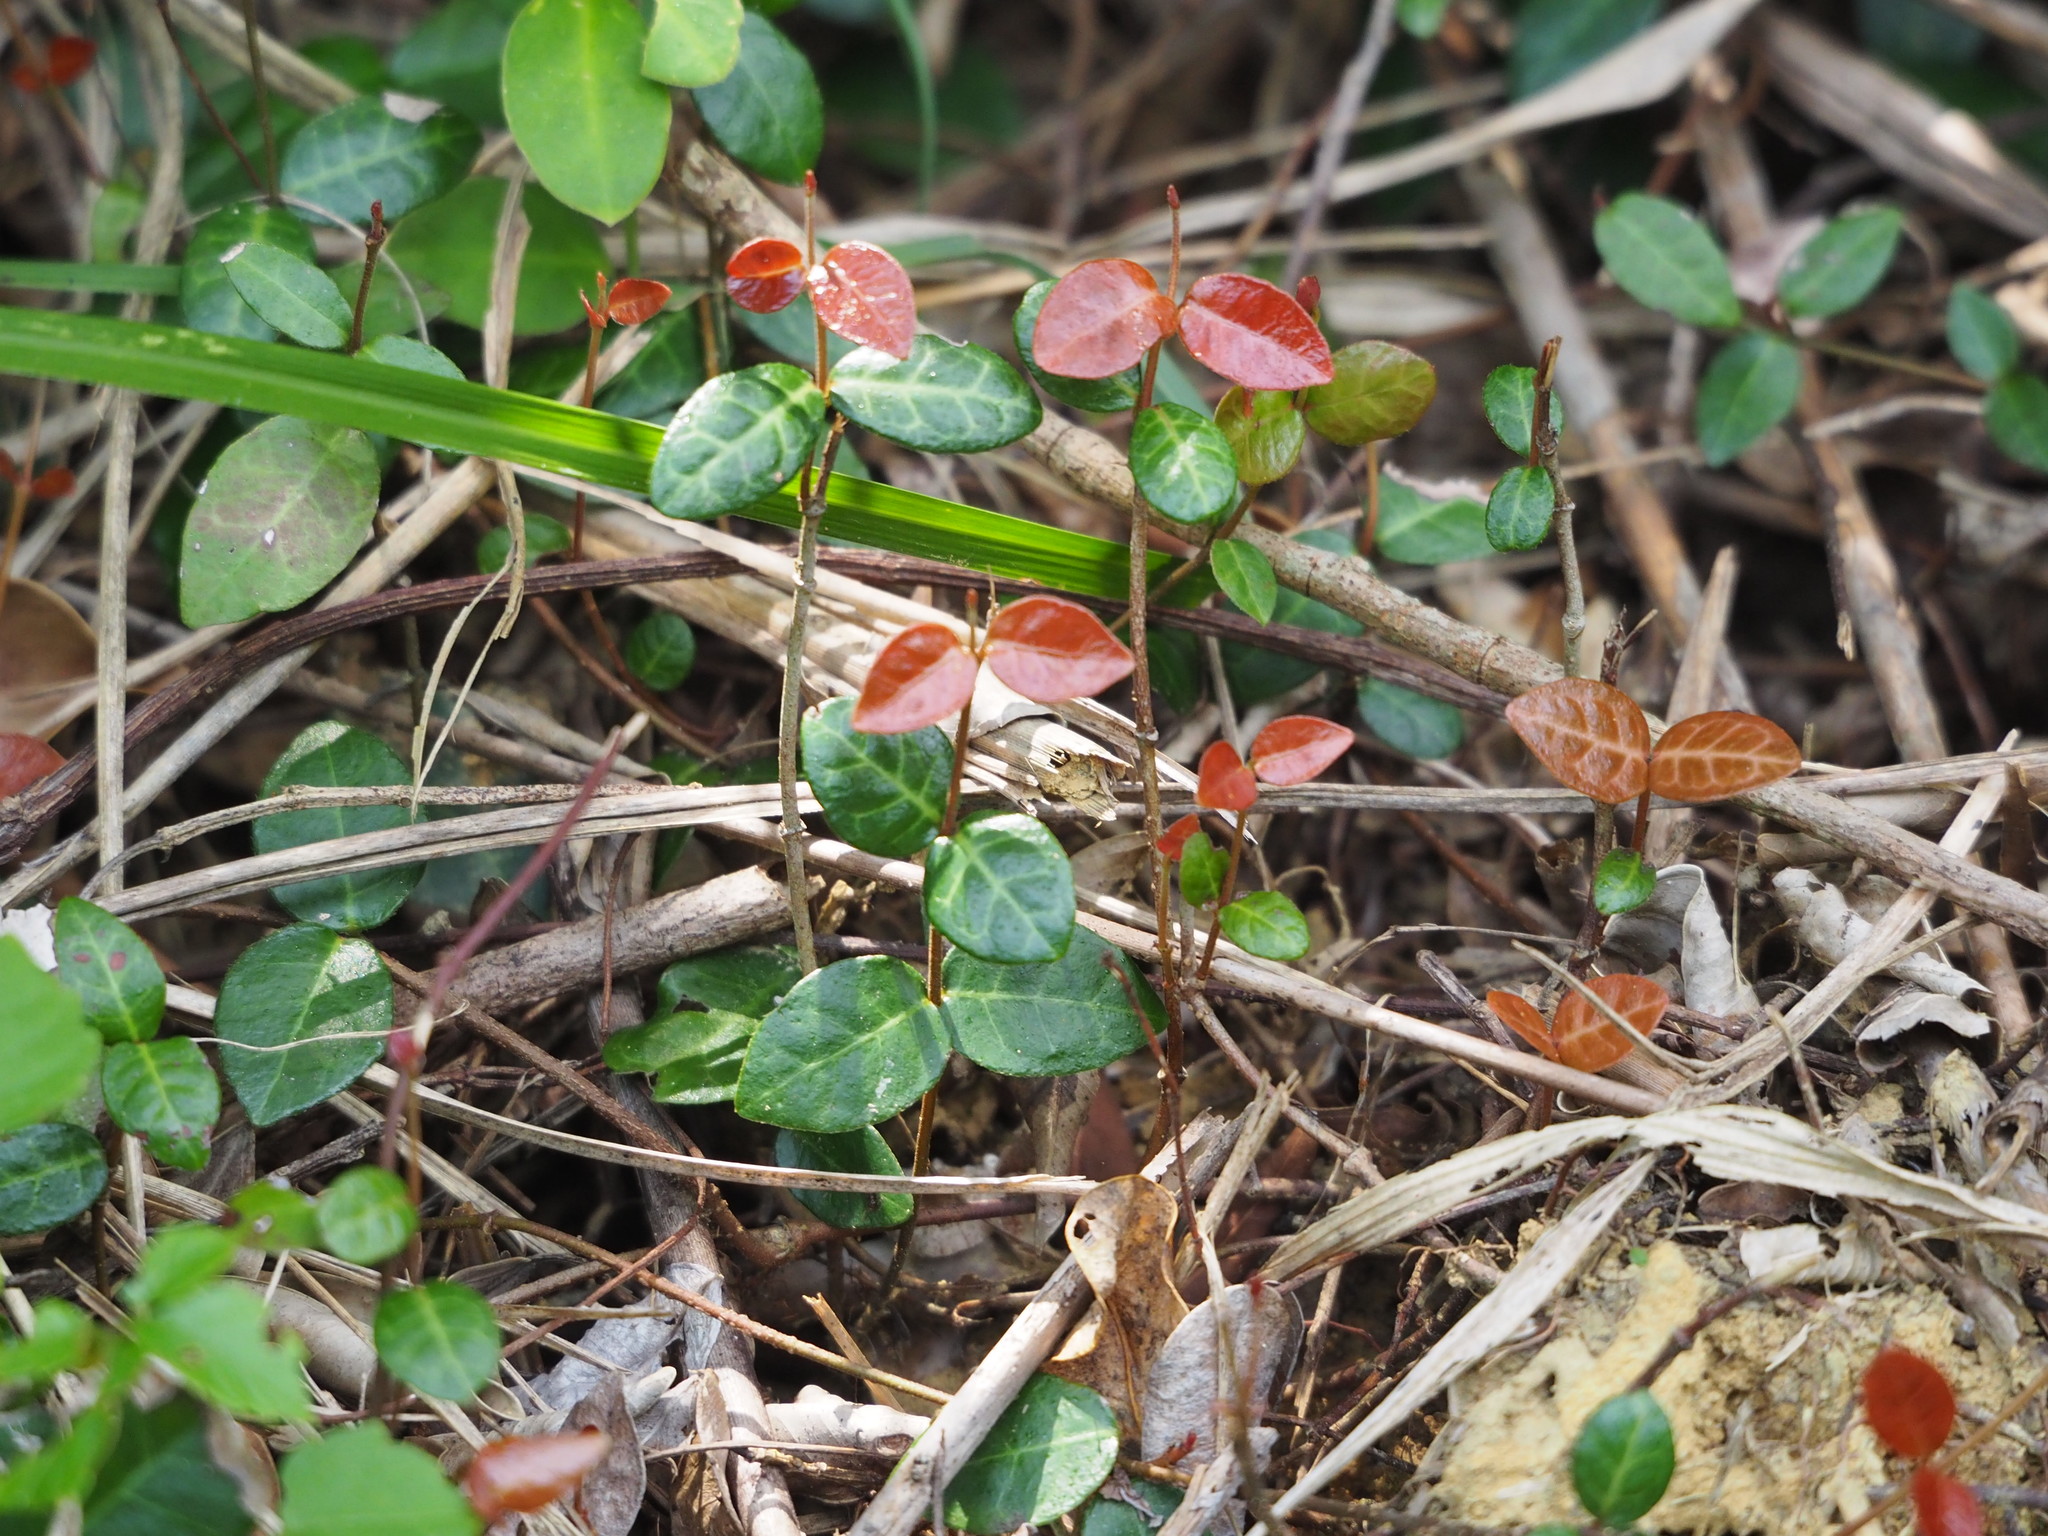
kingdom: Plantae
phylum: Tracheophyta
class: Magnoliopsida
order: Gentianales
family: Apocynaceae
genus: Trachelospermum
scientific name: Trachelospermum asiaticum
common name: Asiatic jasmine
